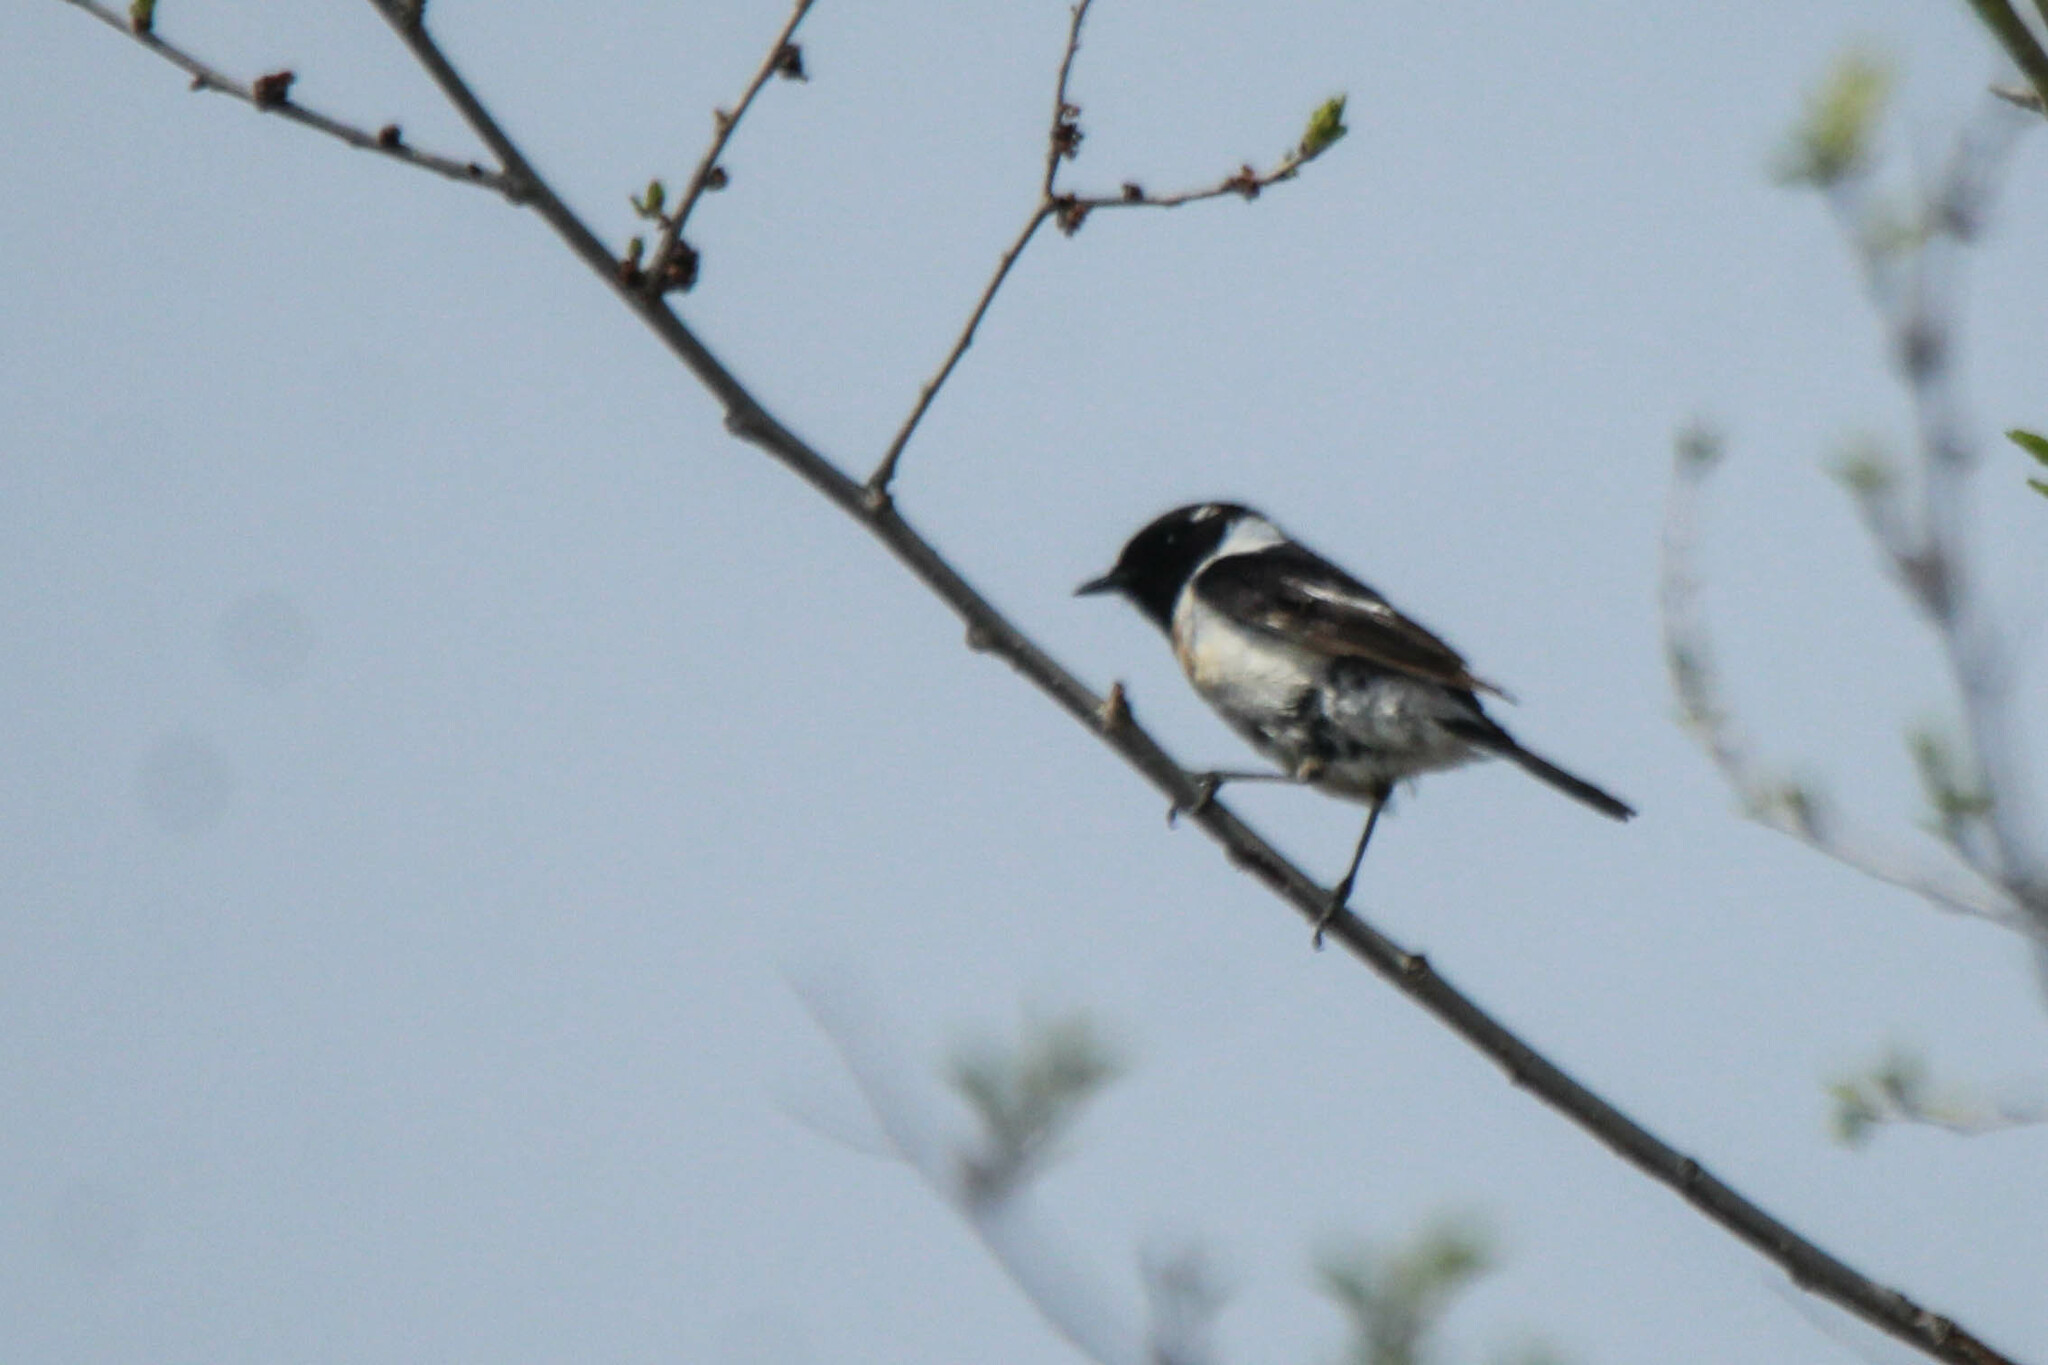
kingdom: Animalia
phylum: Chordata
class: Aves
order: Passeriformes
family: Muscicapidae
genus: Saxicola
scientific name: Saxicola stejnegeri
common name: Stejneger's stonechat
